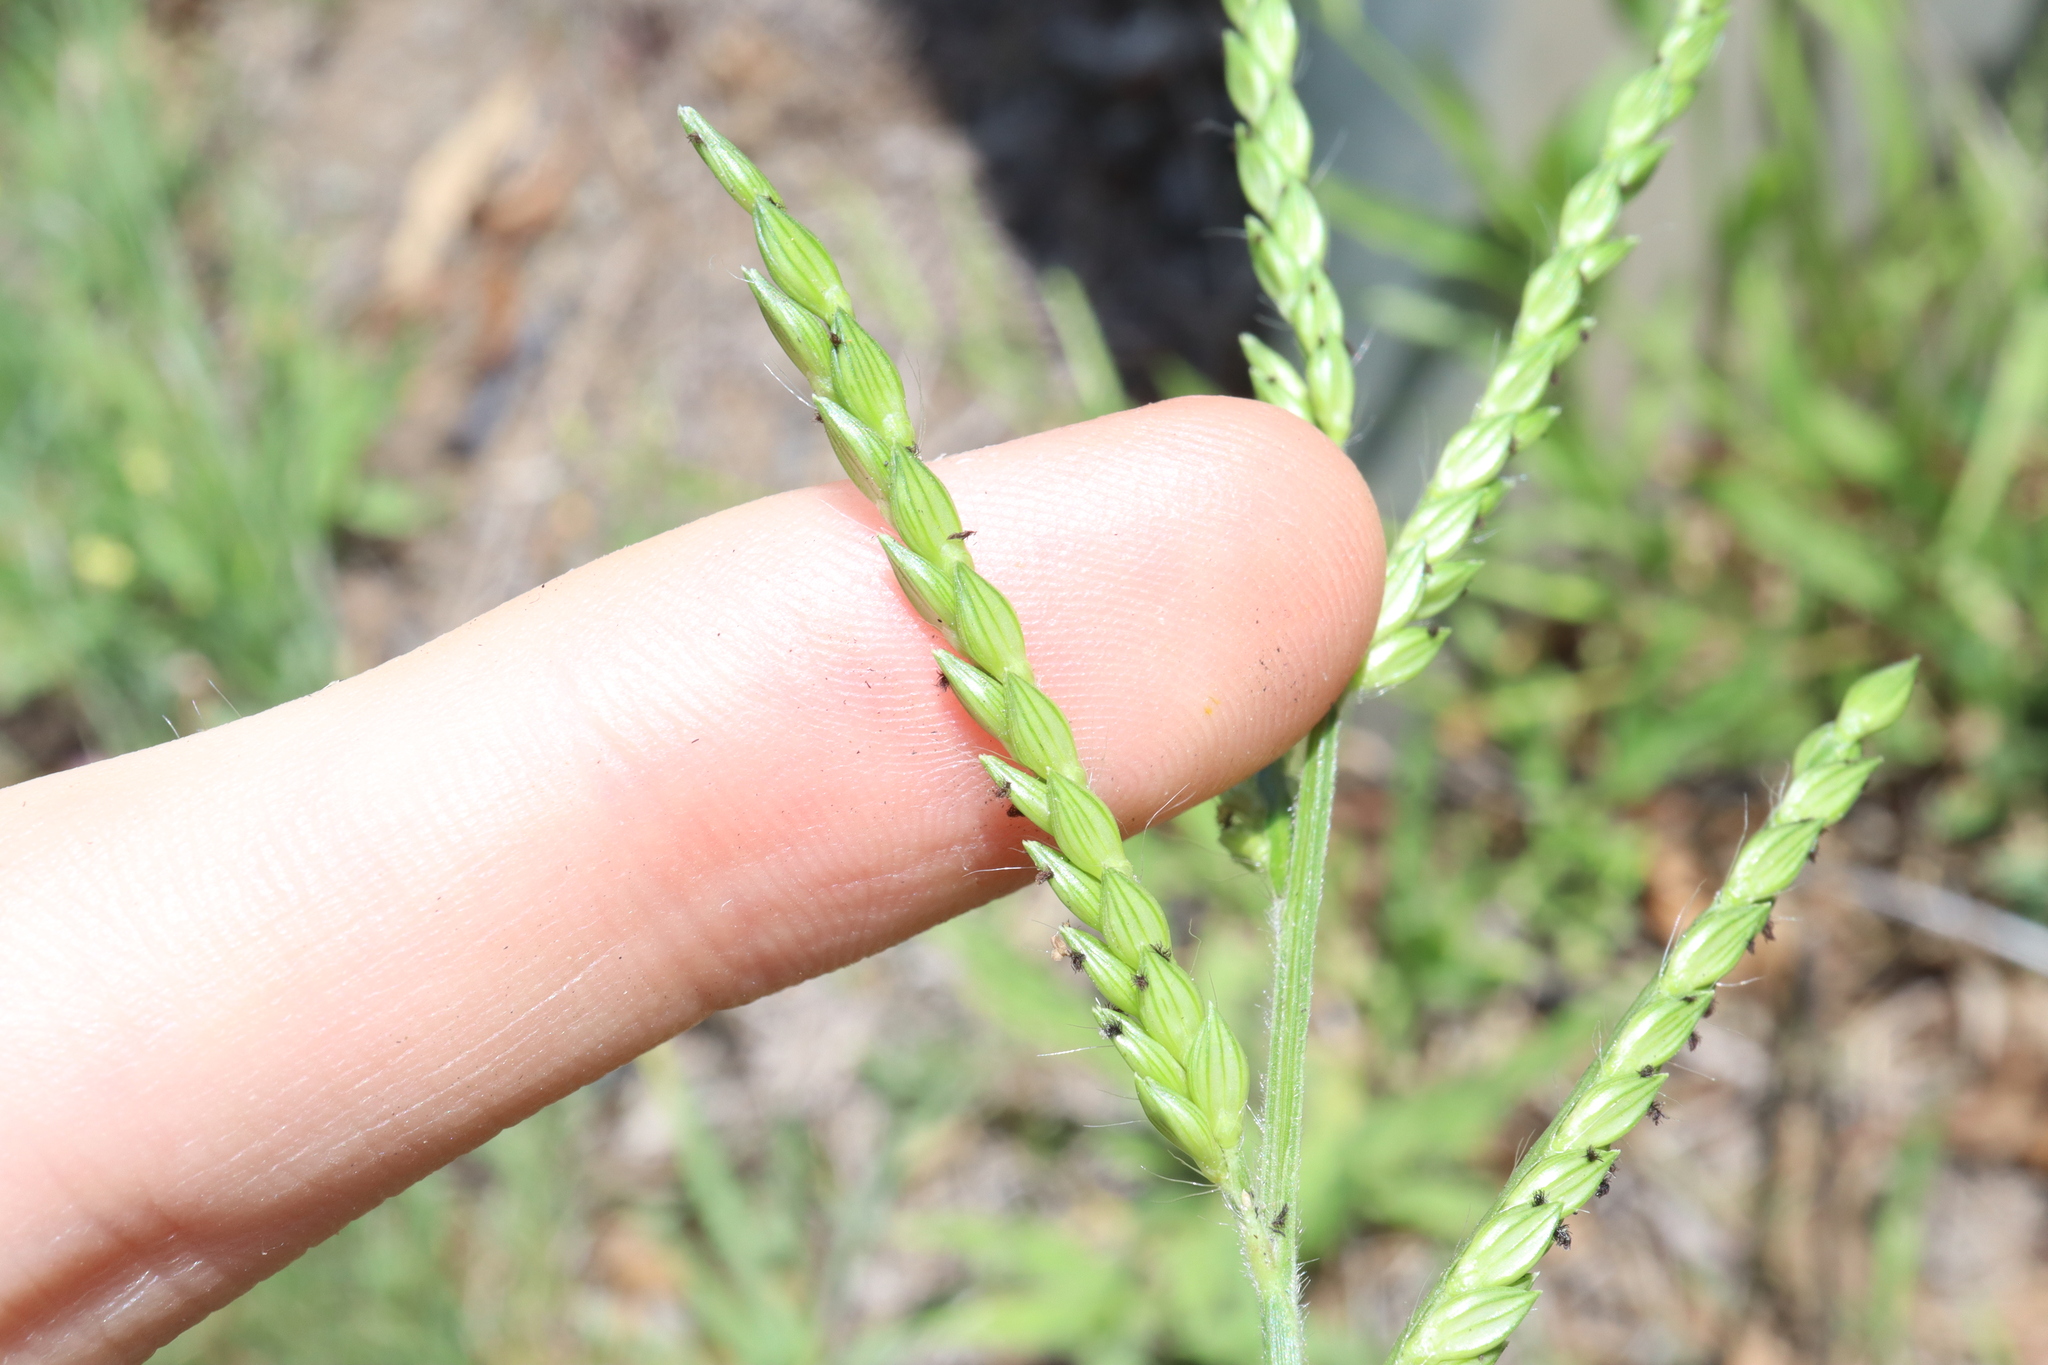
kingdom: Plantae
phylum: Tracheophyta
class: Liliopsida
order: Poales
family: Poaceae
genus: Urochloa
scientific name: Urochloa panicoides
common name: Sharp-flowered signal-grass
